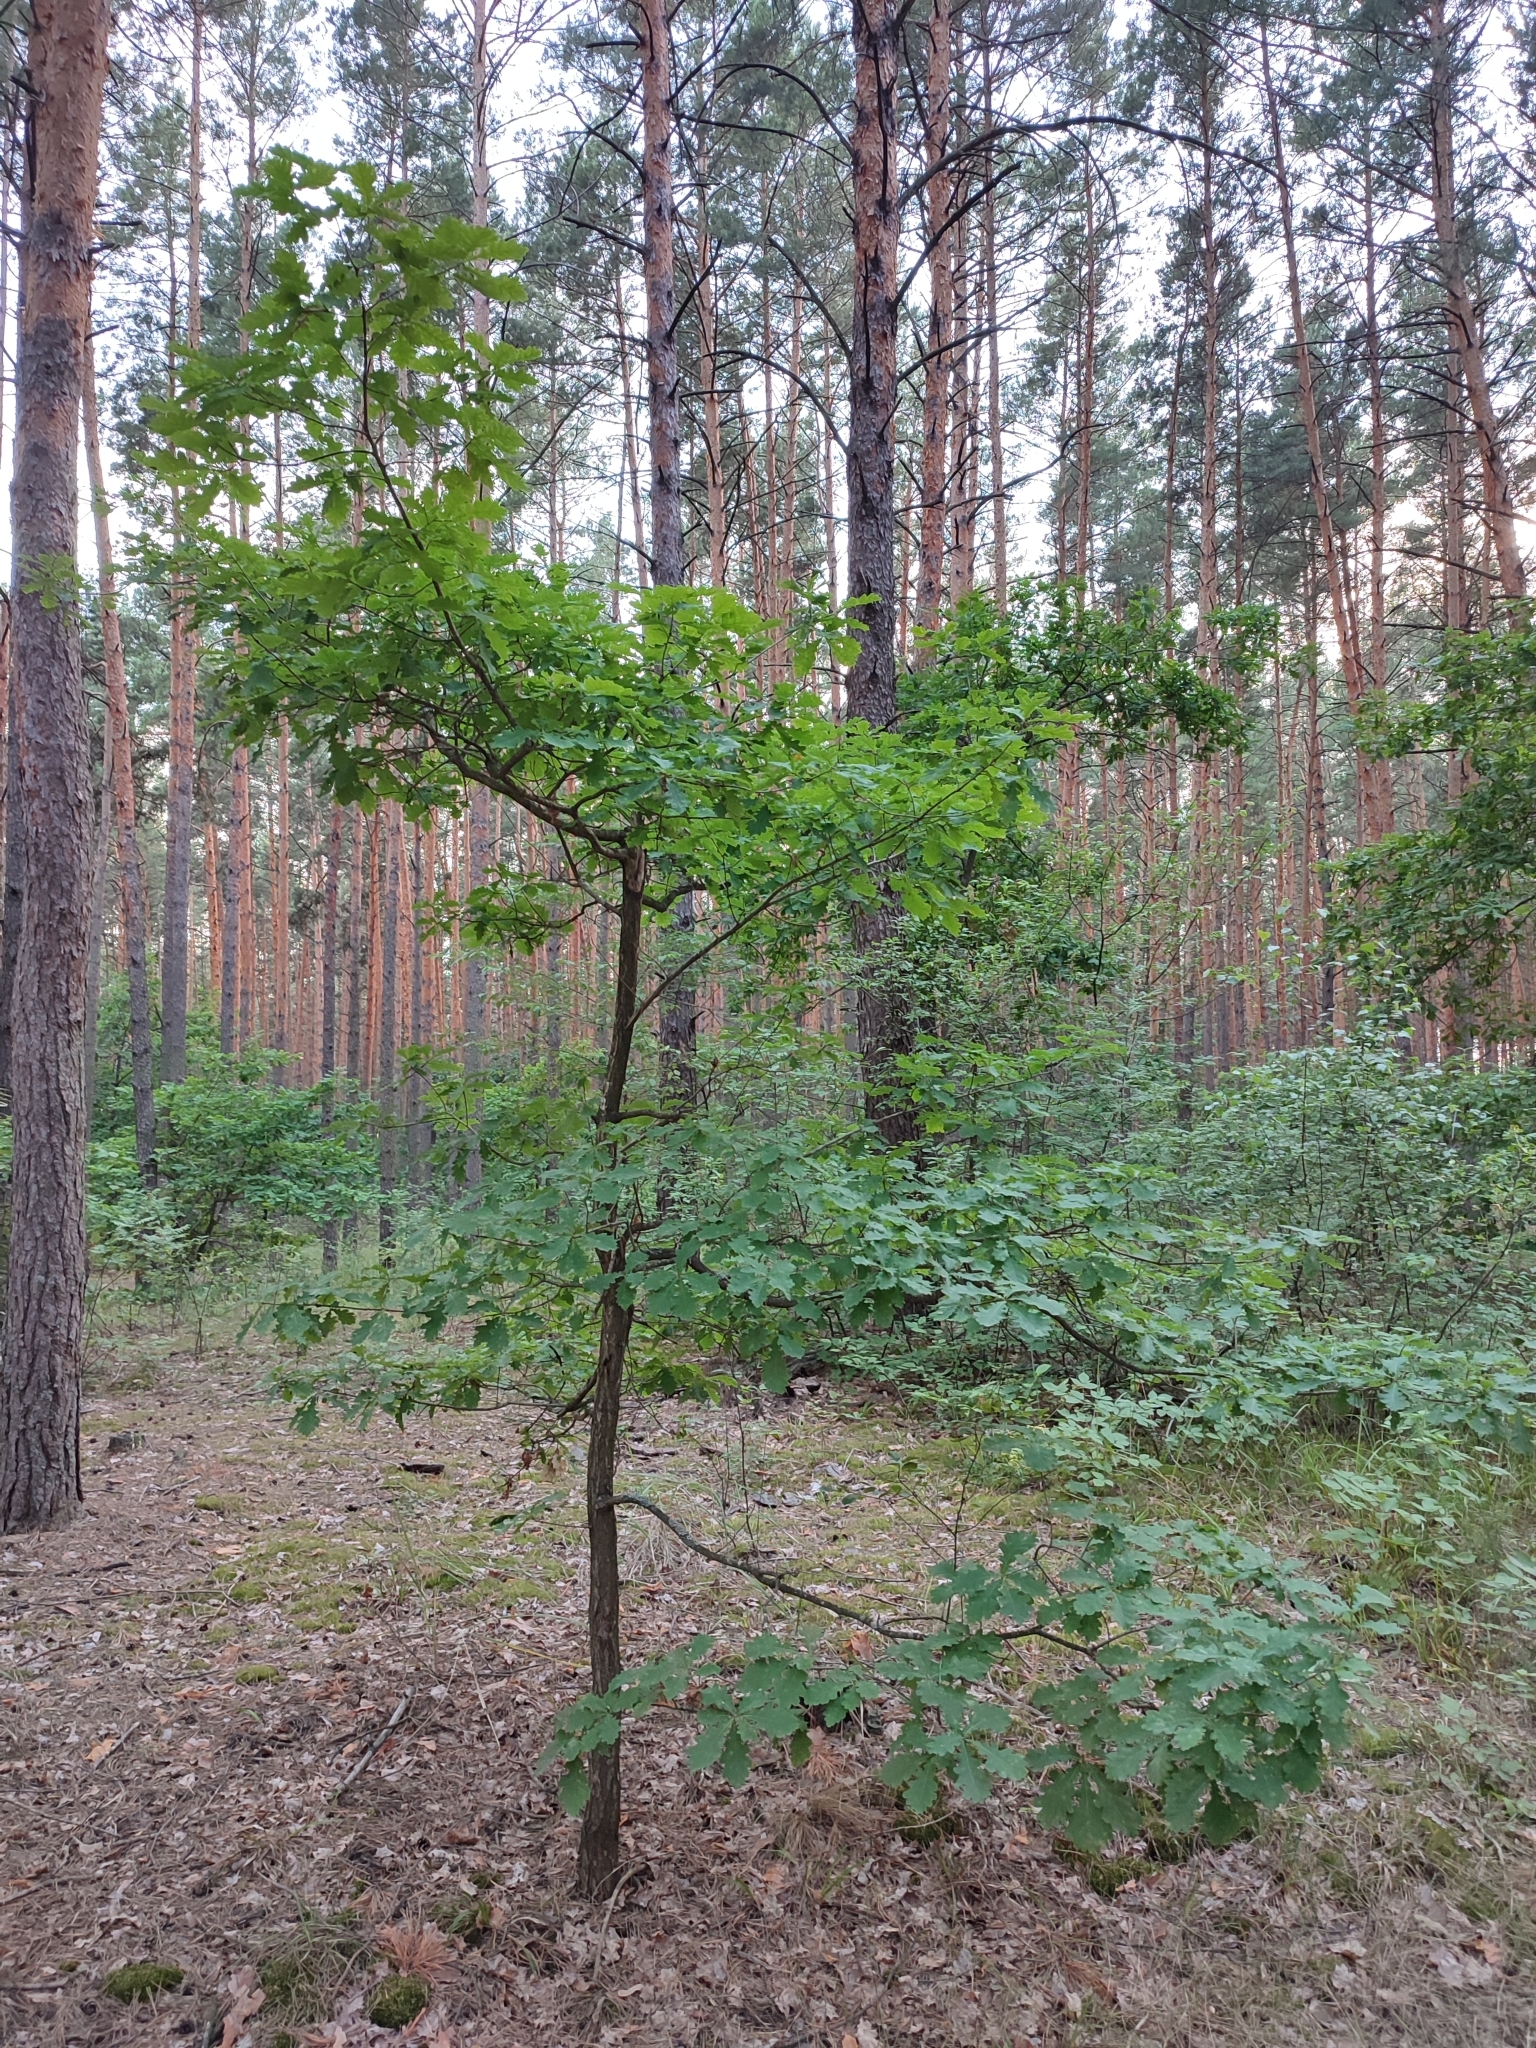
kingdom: Plantae
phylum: Tracheophyta
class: Magnoliopsida
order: Fagales
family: Fagaceae
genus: Quercus
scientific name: Quercus robur
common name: Pedunculate oak
